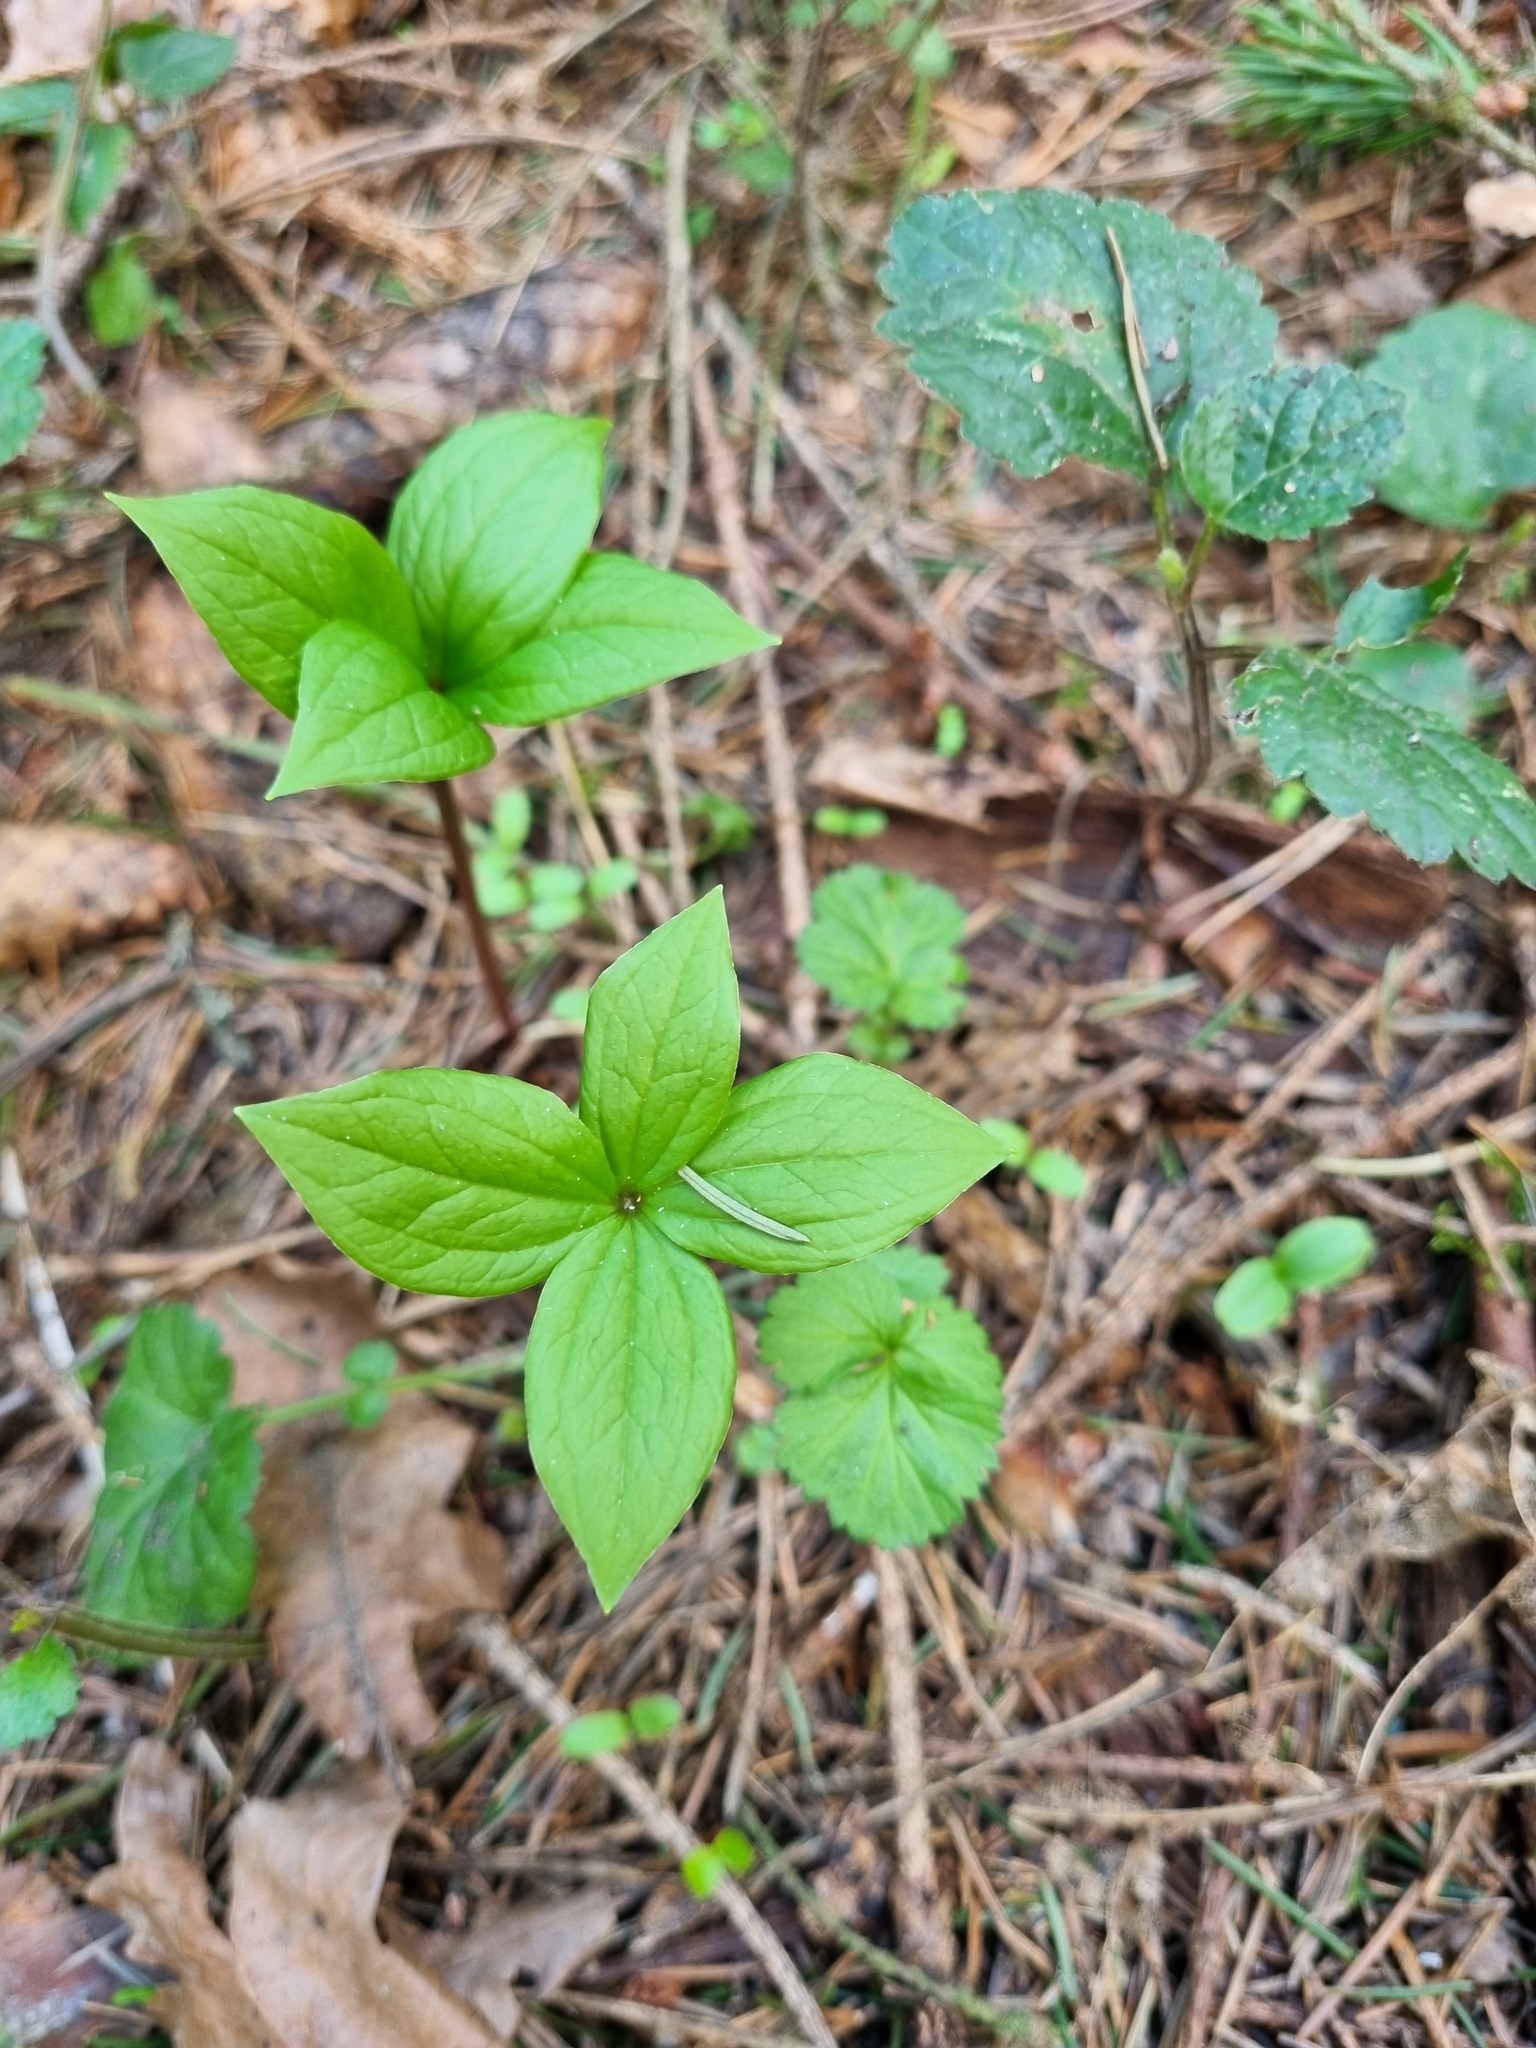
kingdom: Plantae
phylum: Tracheophyta
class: Liliopsida
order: Liliales
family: Melanthiaceae
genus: Paris
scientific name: Paris quadrifolia
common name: Herb-paris
